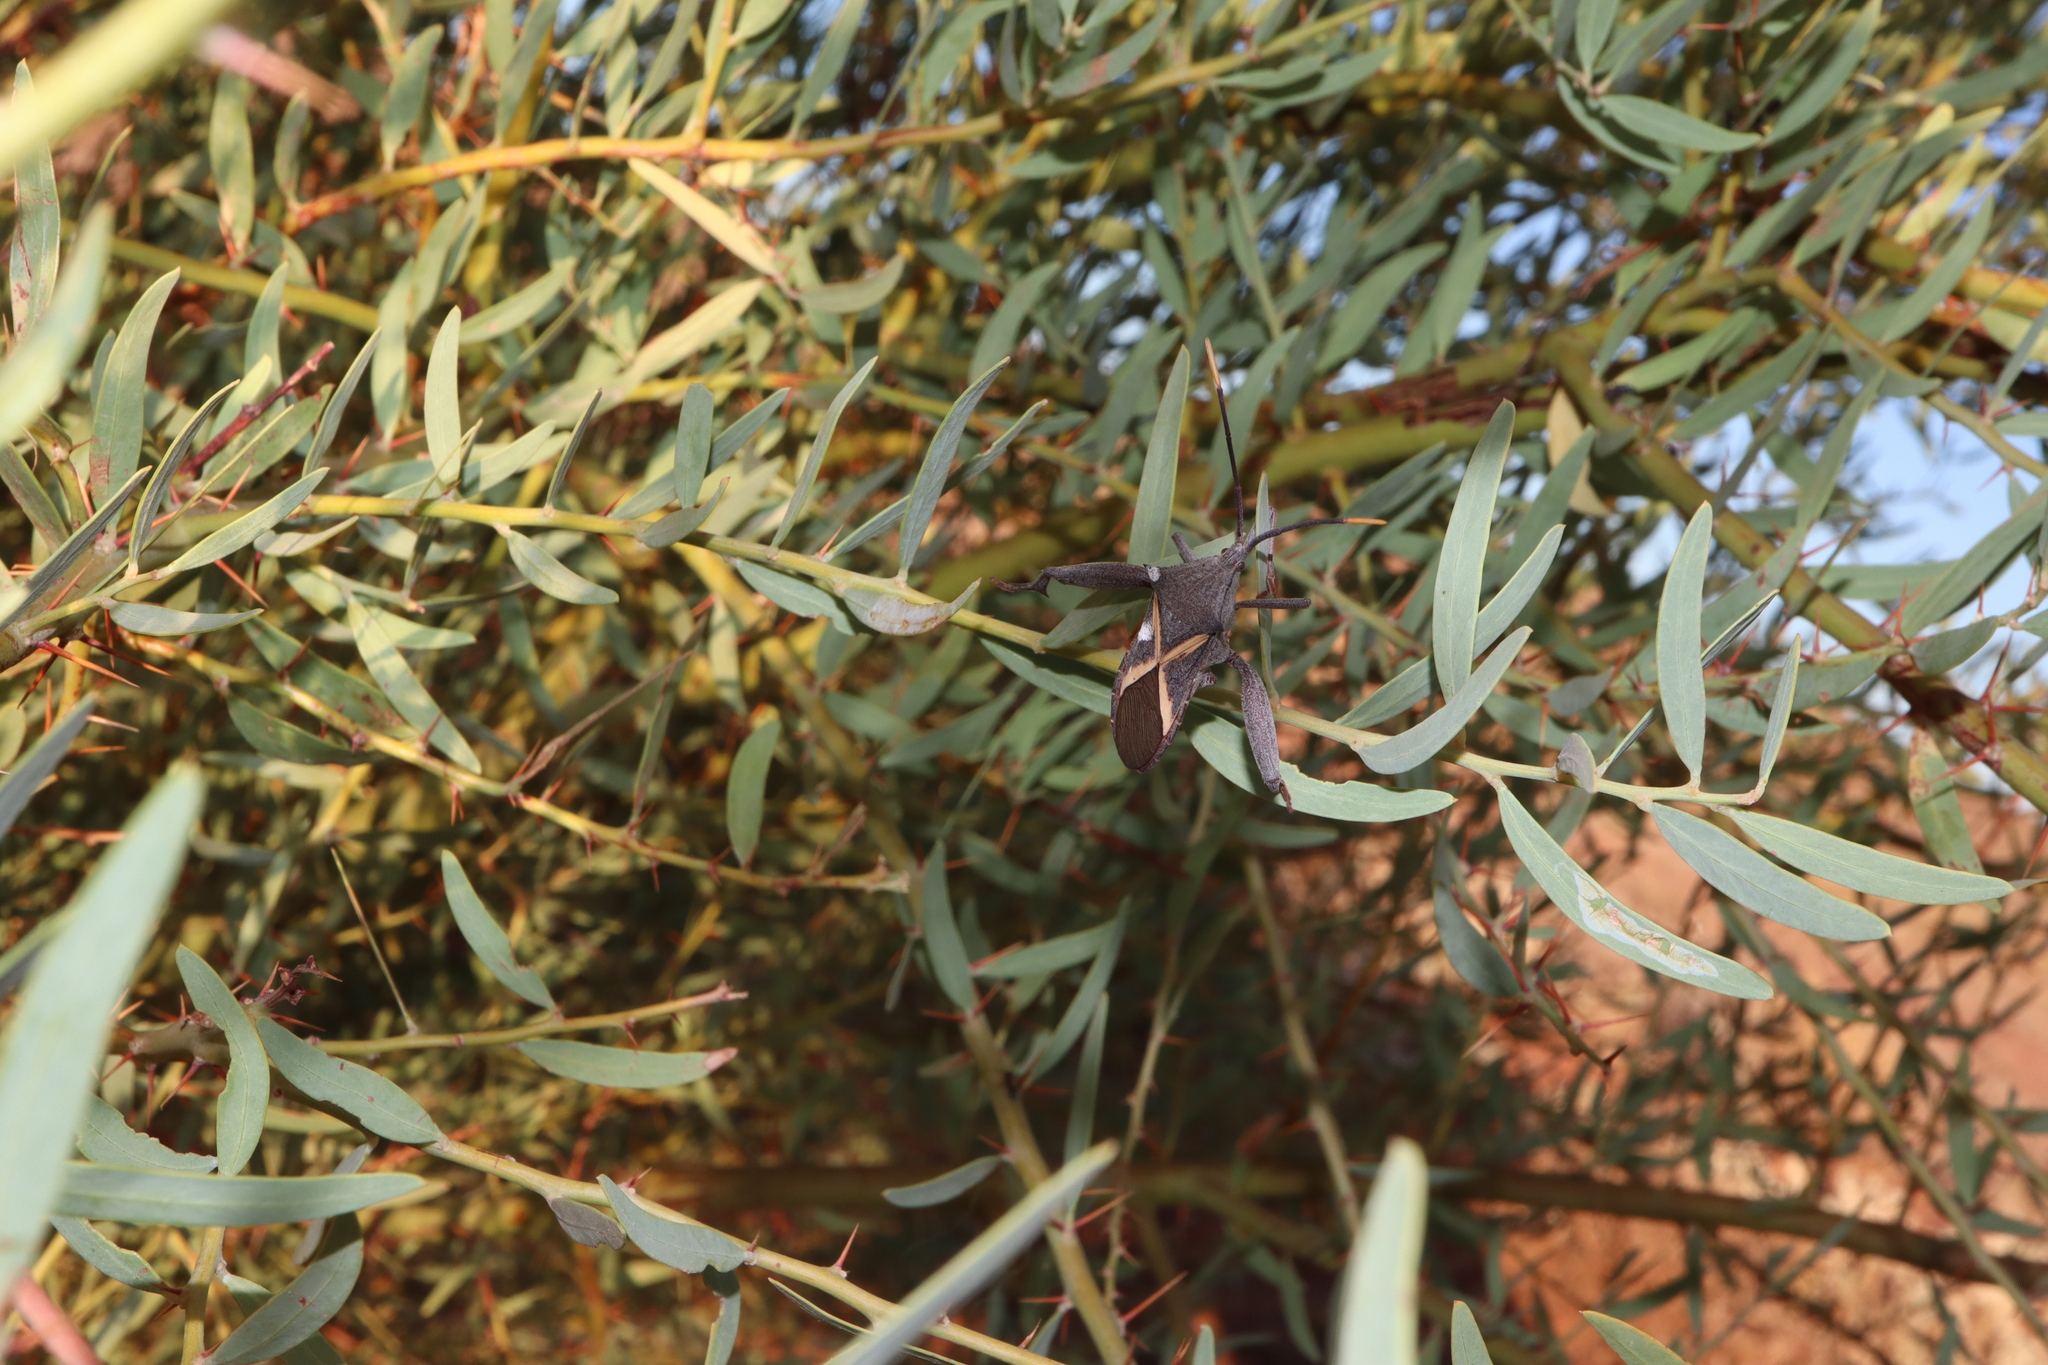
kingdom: Animalia
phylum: Arthropoda
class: Insecta
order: Hemiptera
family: Coreidae
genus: Mictis
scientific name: Mictis profana
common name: Crusader bug
